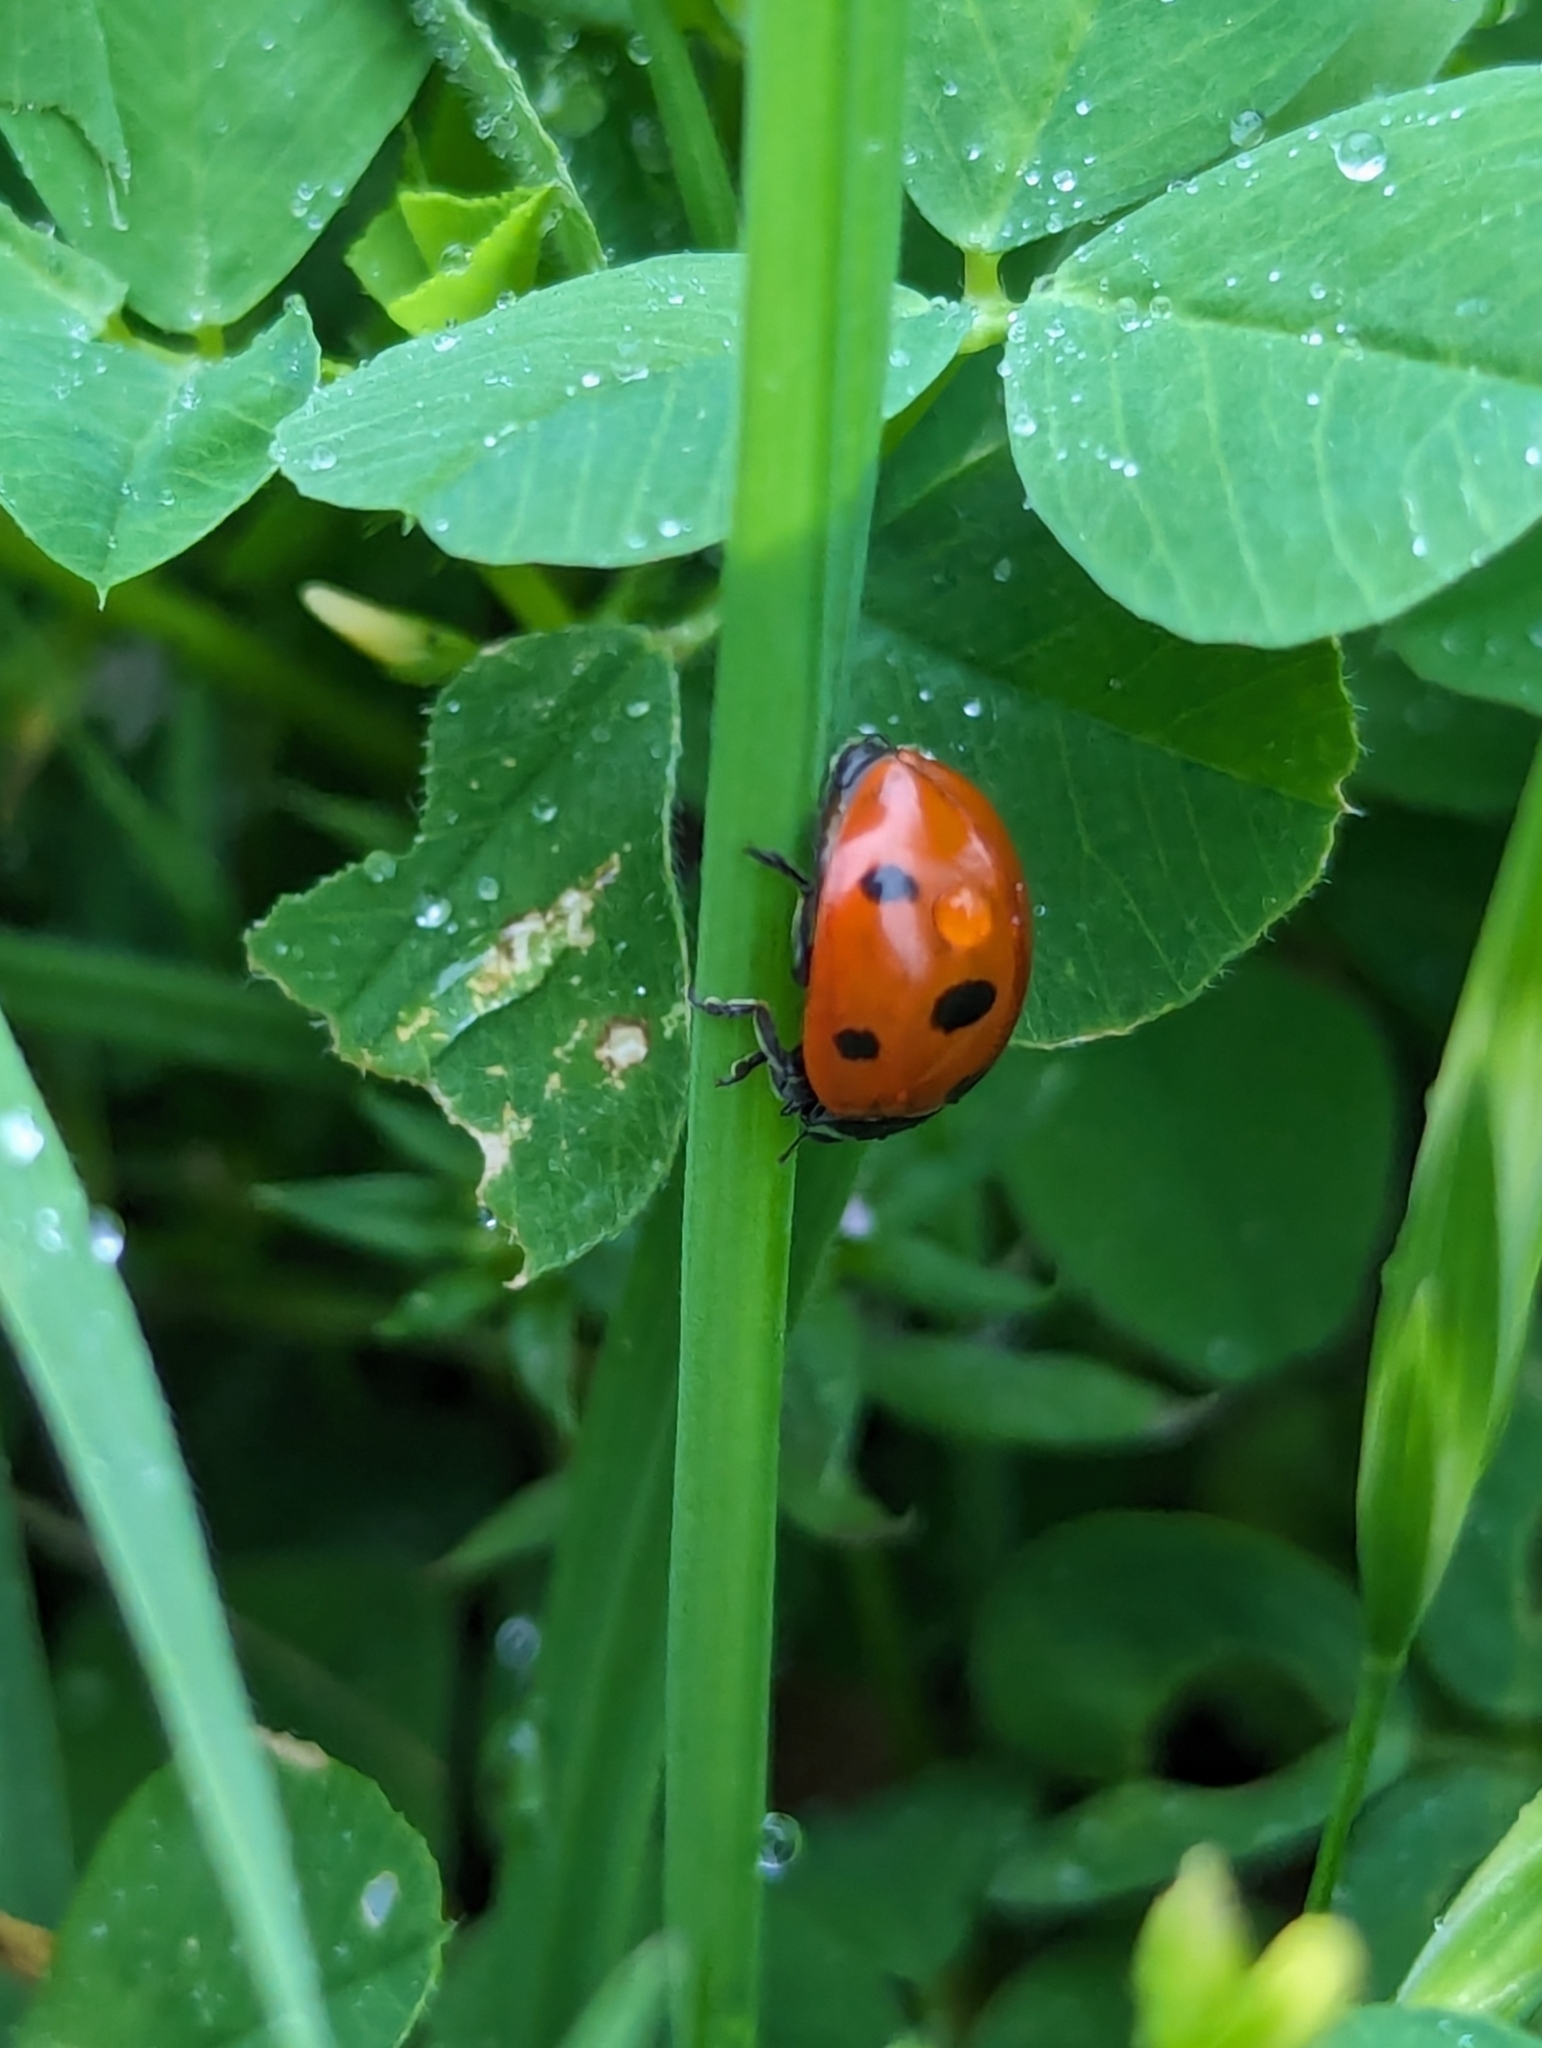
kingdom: Animalia
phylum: Arthropoda
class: Insecta
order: Coleoptera
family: Coccinellidae
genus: Coccinella
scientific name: Coccinella septempunctata
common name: Sevenspotted lady beetle
